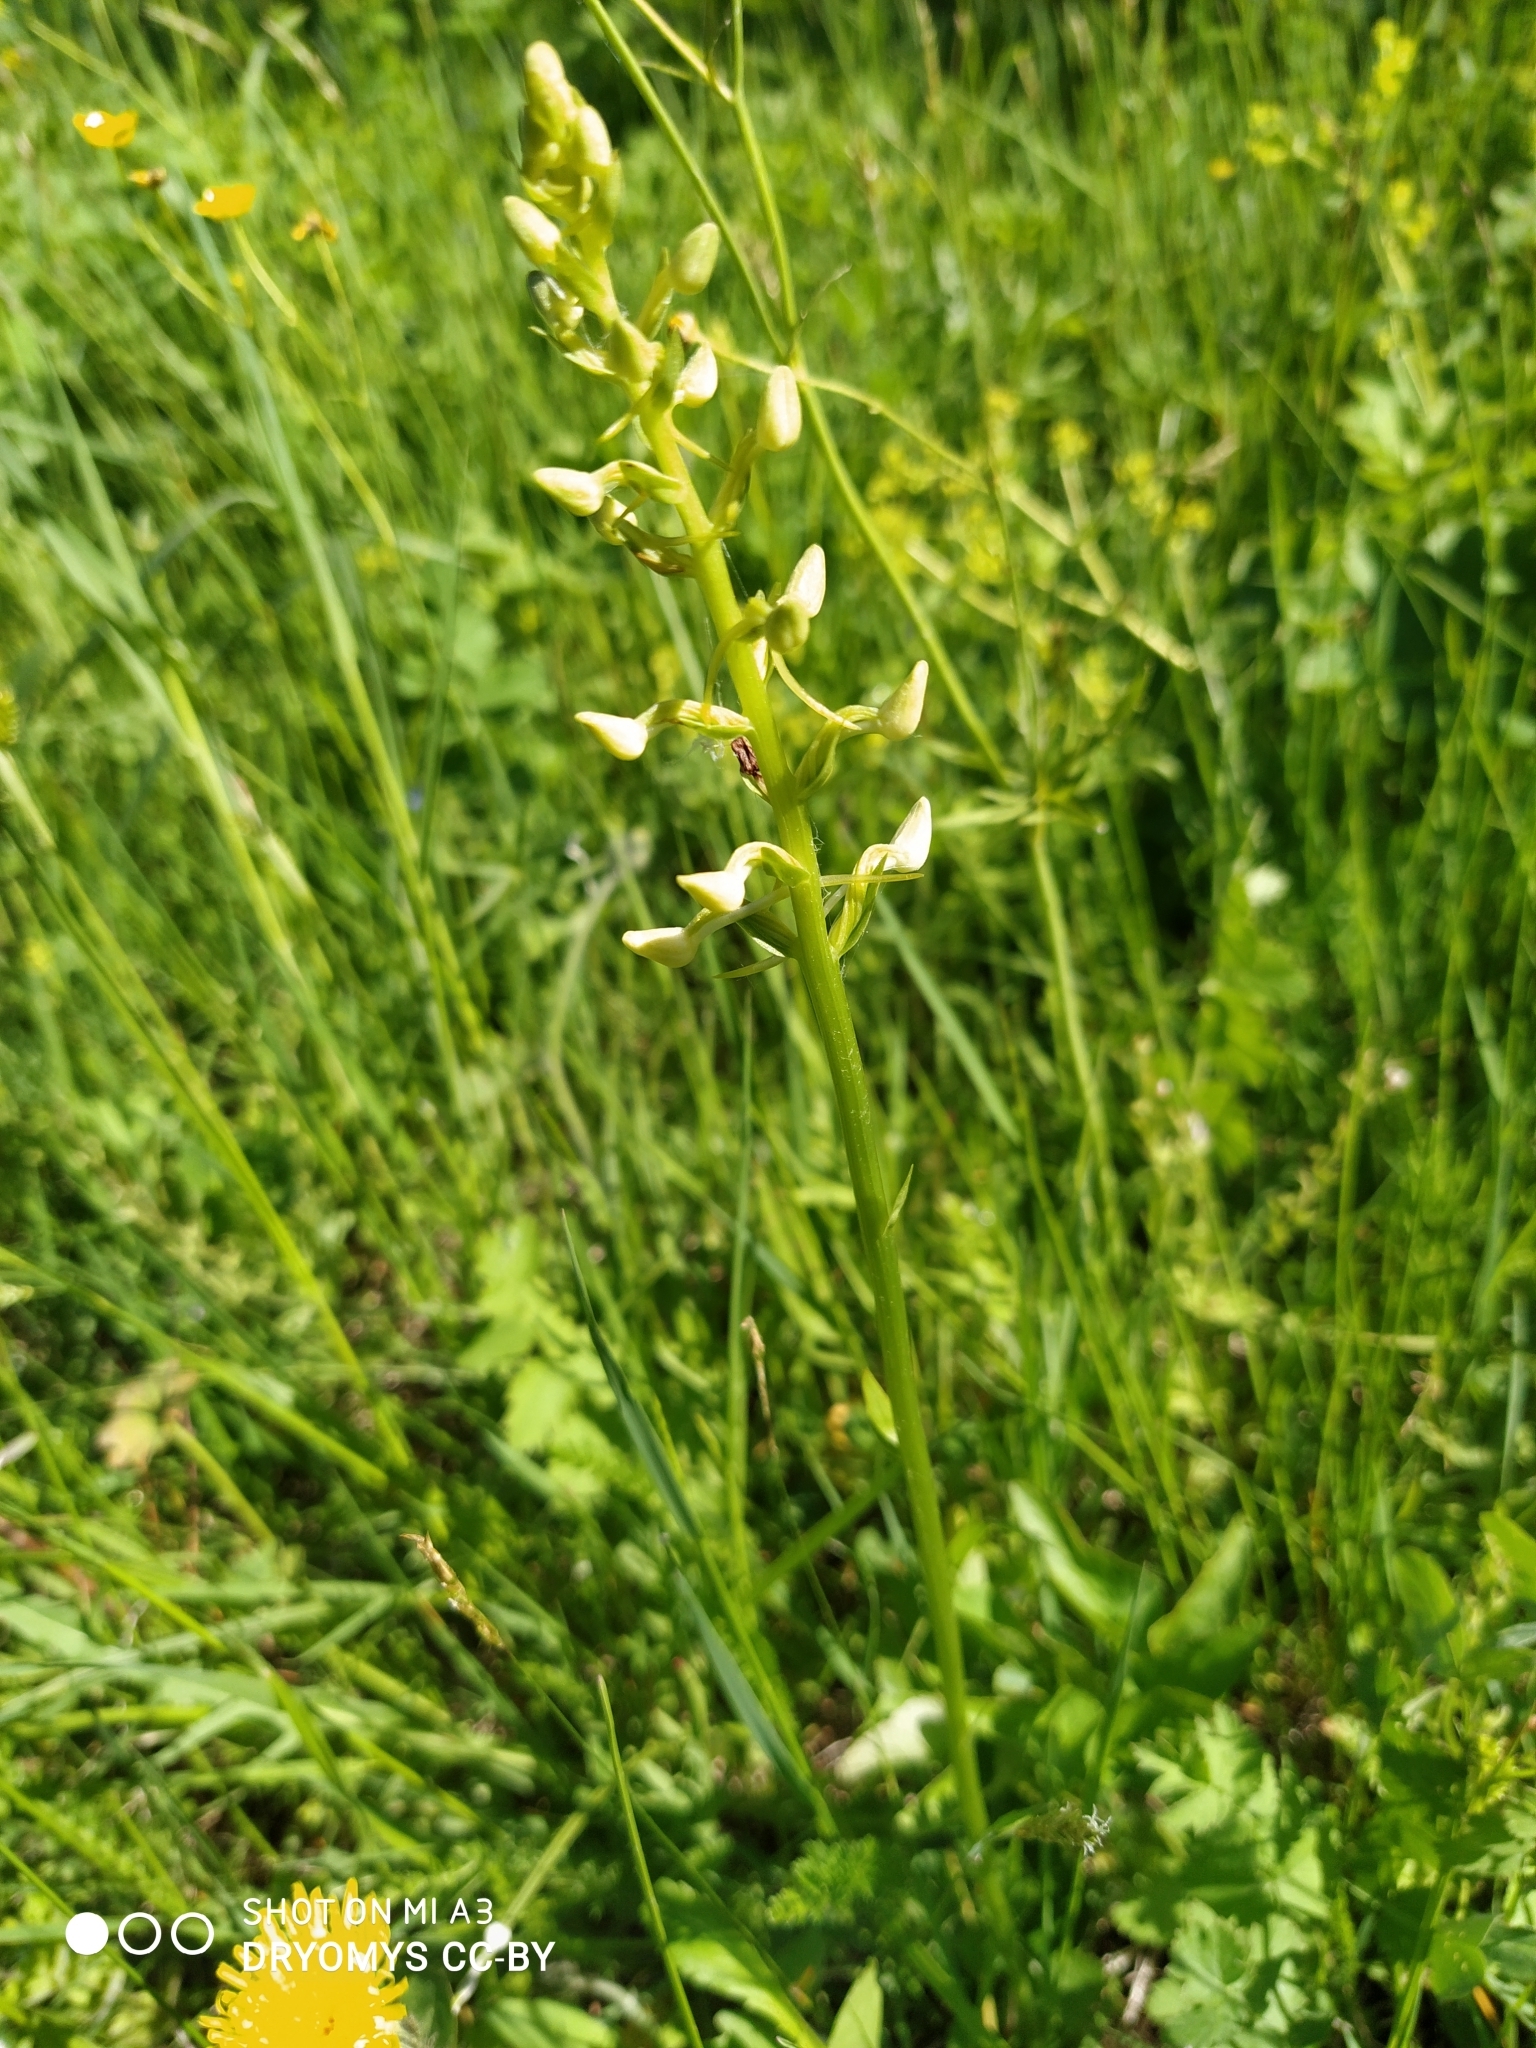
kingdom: Plantae
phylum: Tracheophyta
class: Liliopsida
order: Asparagales
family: Orchidaceae
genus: Platanthera
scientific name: Platanthera bifolia
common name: Lesser butterfly-orchid
